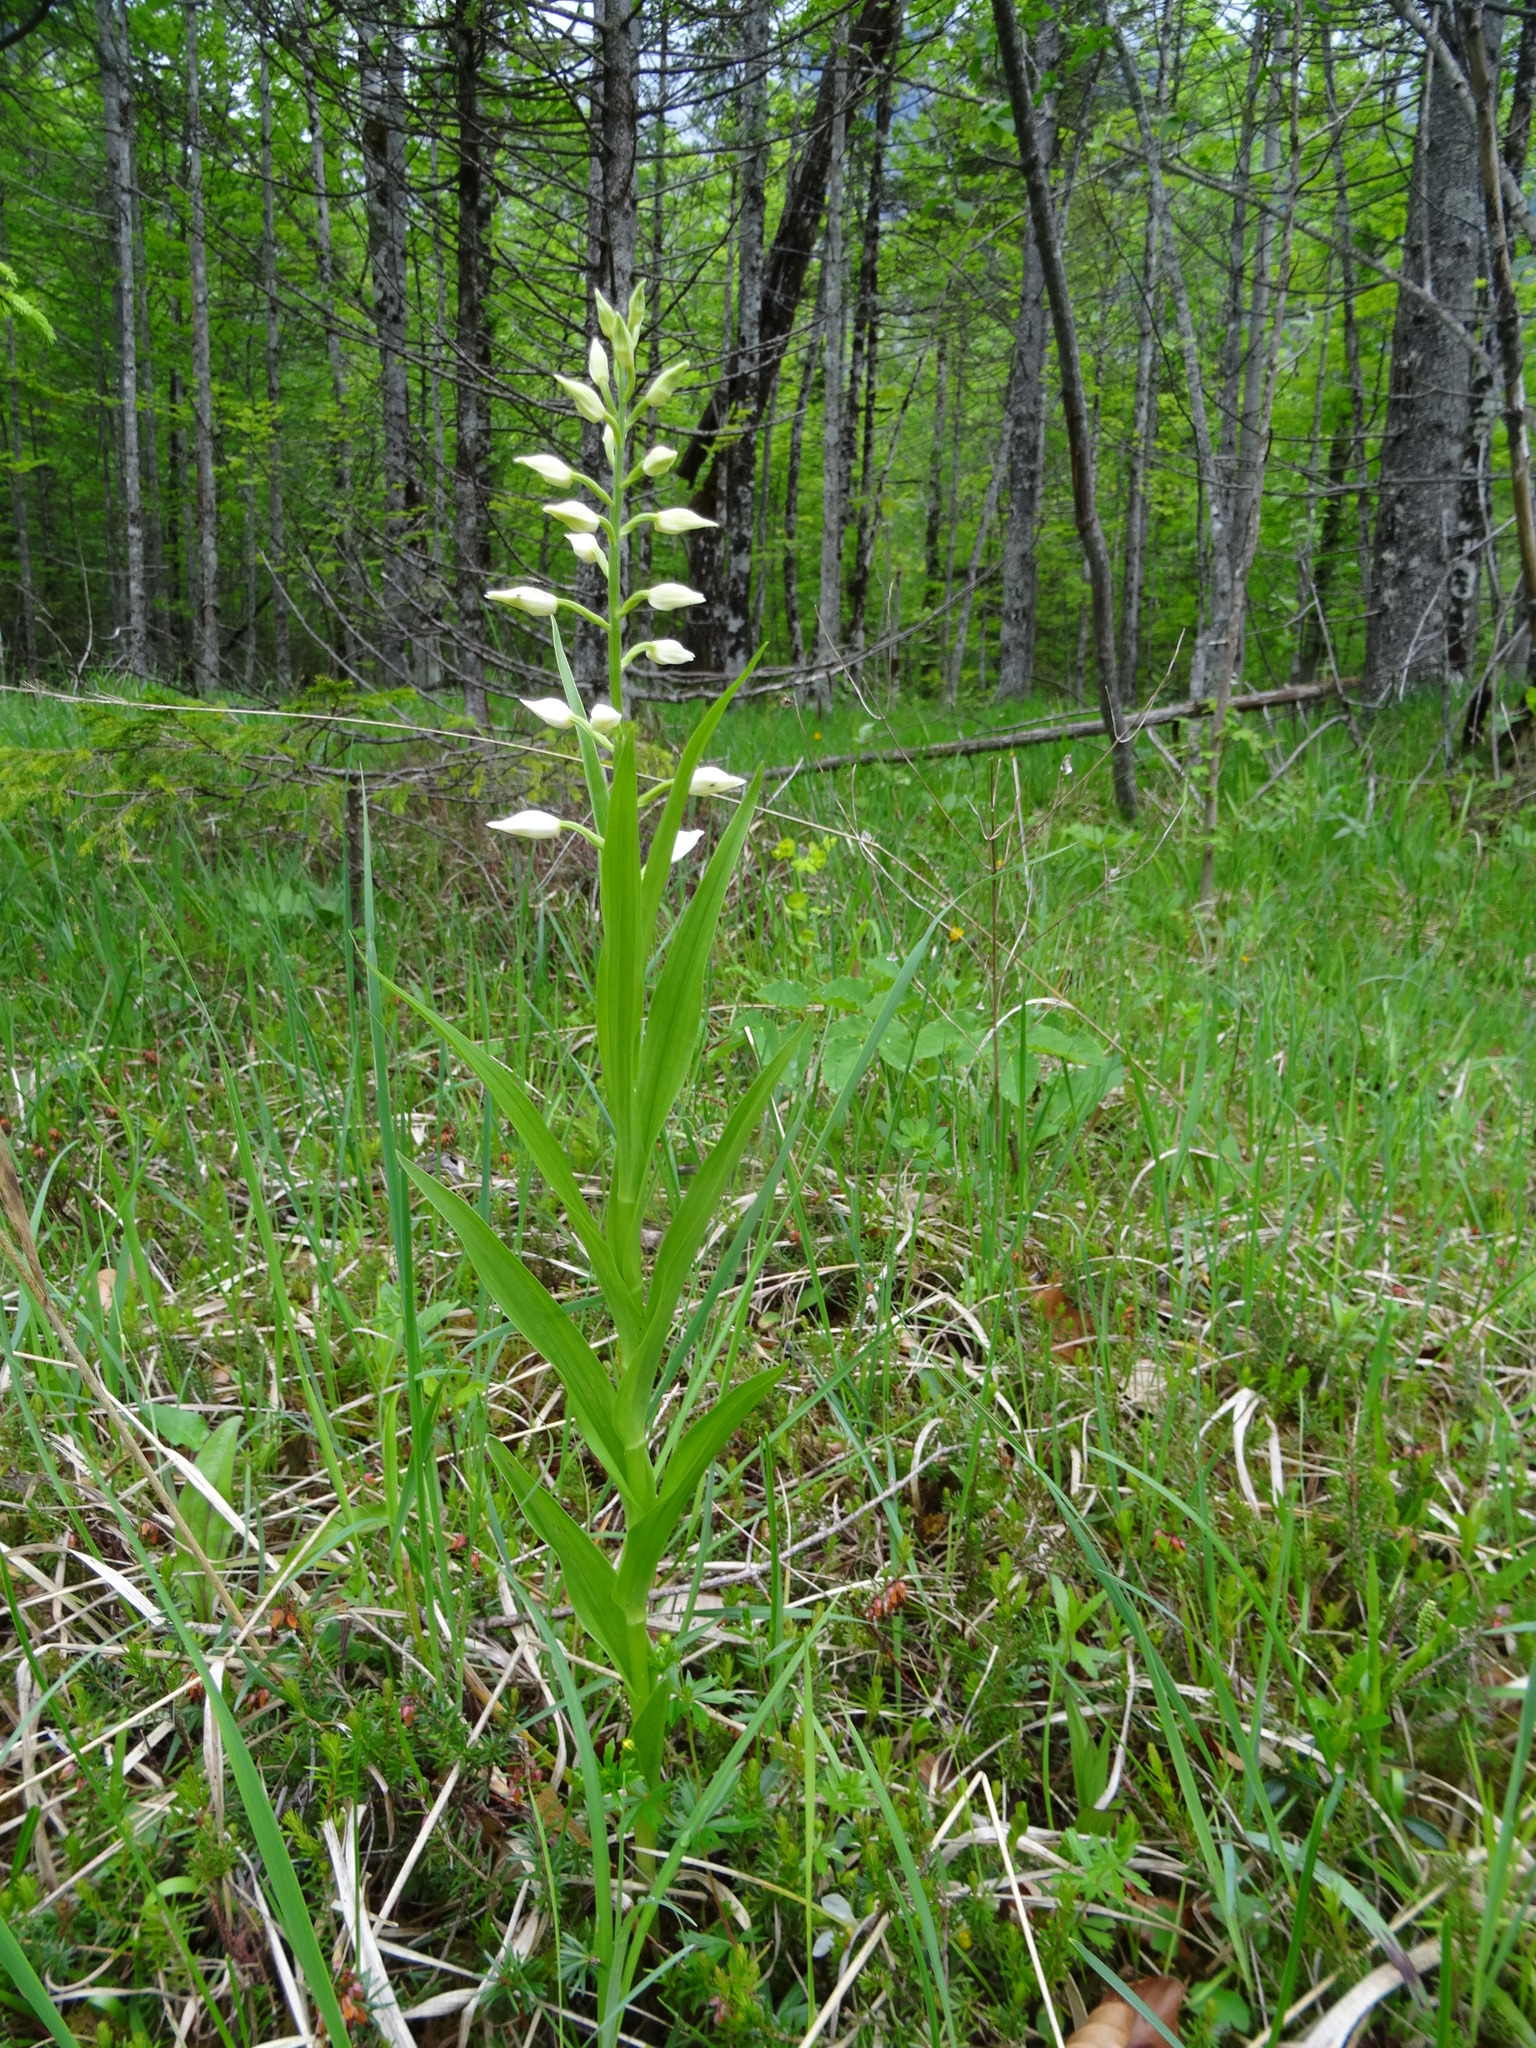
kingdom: Plantae
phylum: Tracheophyta
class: Liliopsida
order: Asparagales
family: Orchidaceae
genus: Cephalanthera
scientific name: Cephalanthera longifolia
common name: Narrow-leaved helleborine
